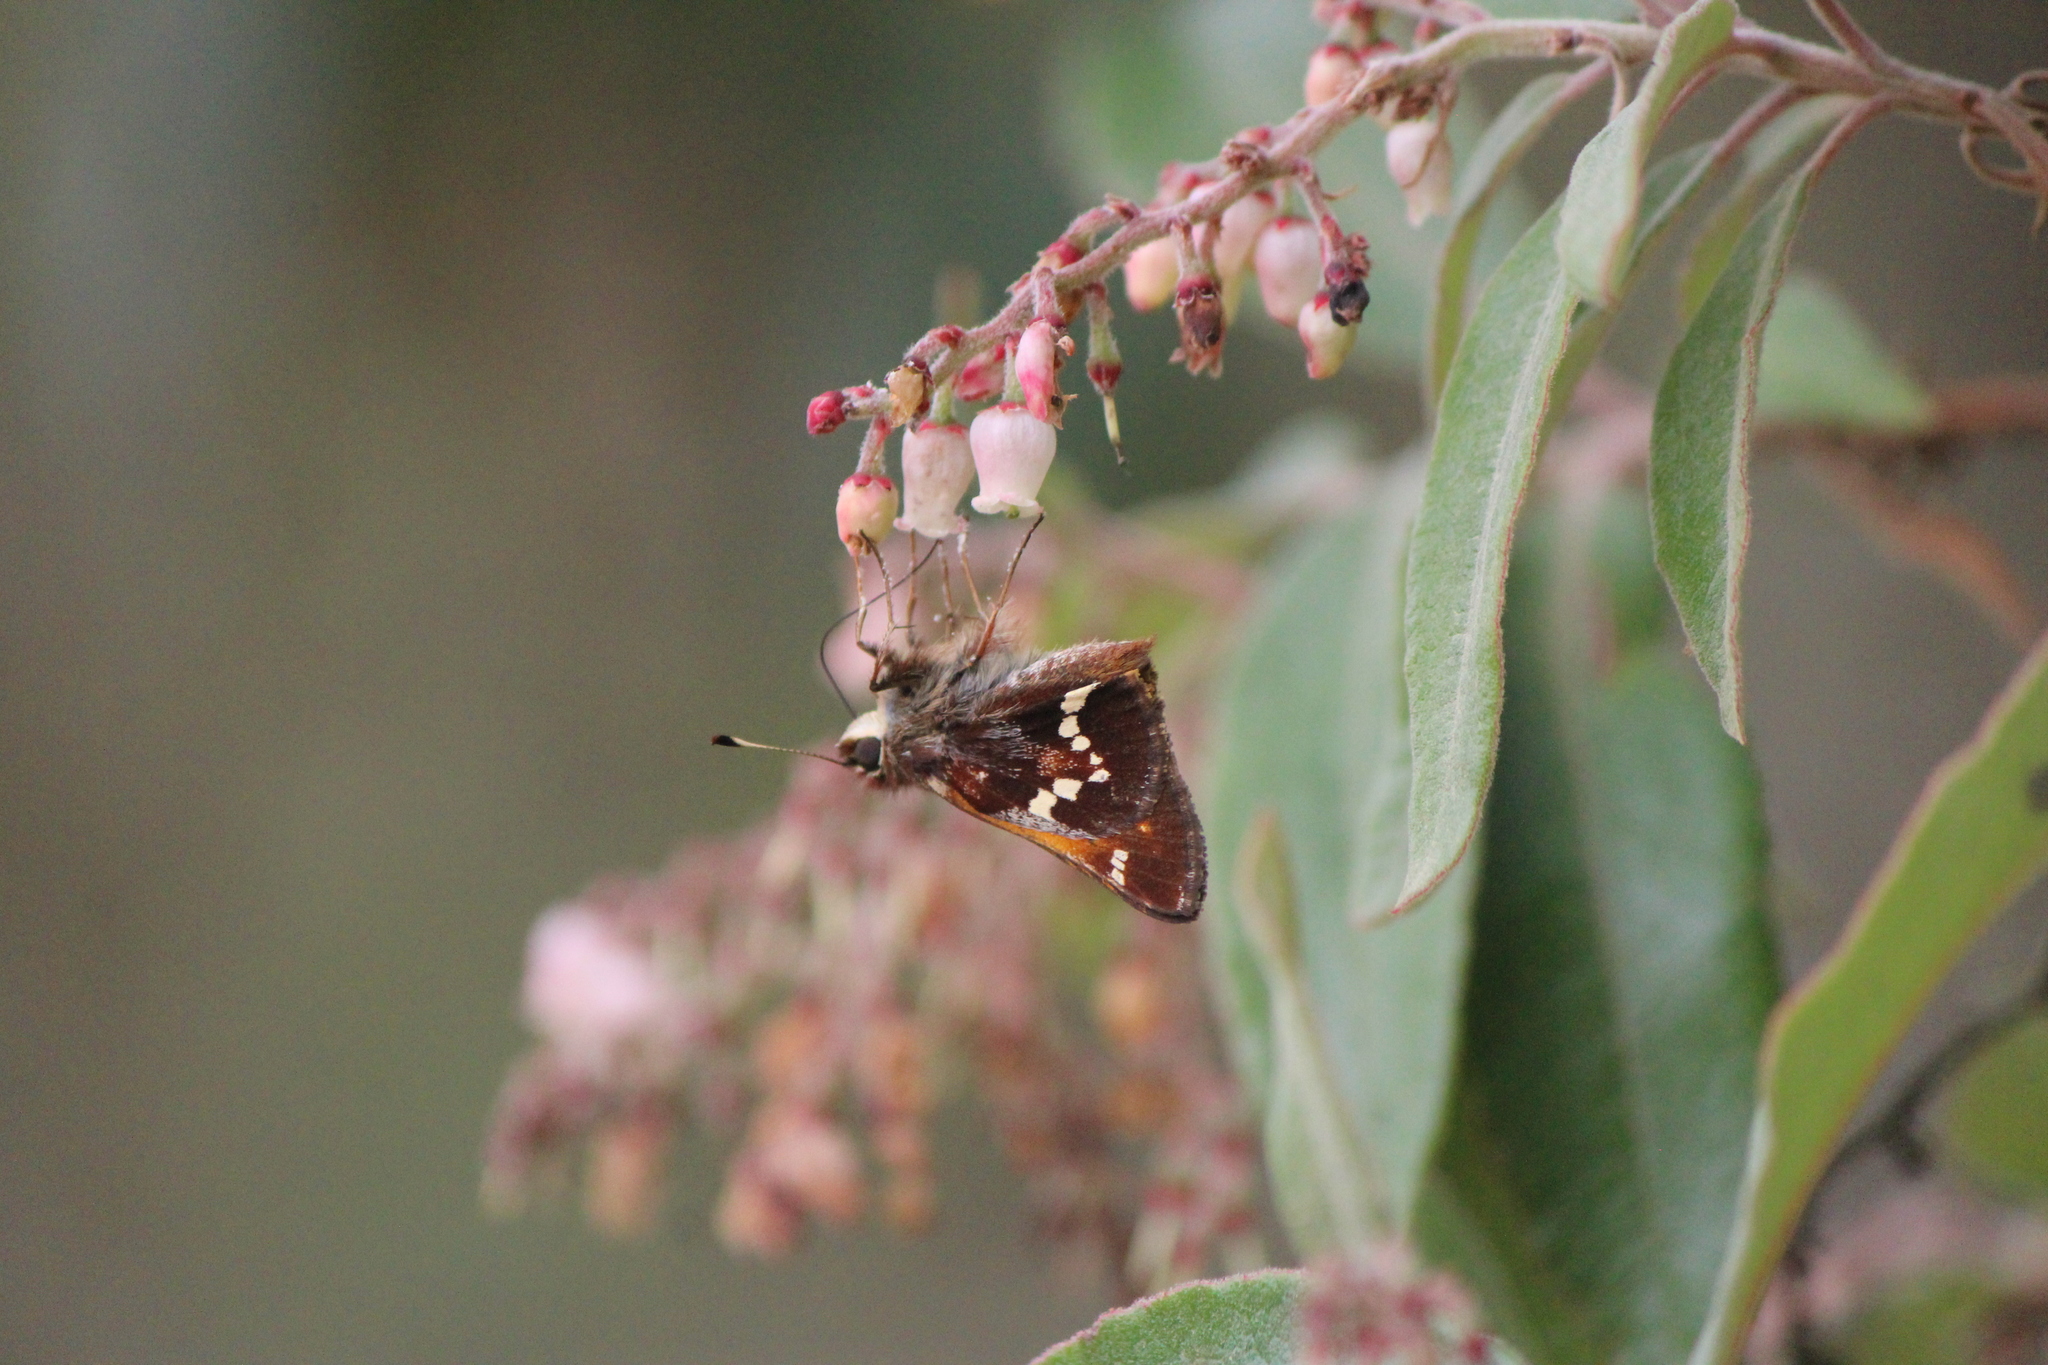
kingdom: Animalia
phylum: Arthropoda
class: Insecta
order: Lepidoptera
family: Hesperiidae
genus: Lon
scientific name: Lon monticola
